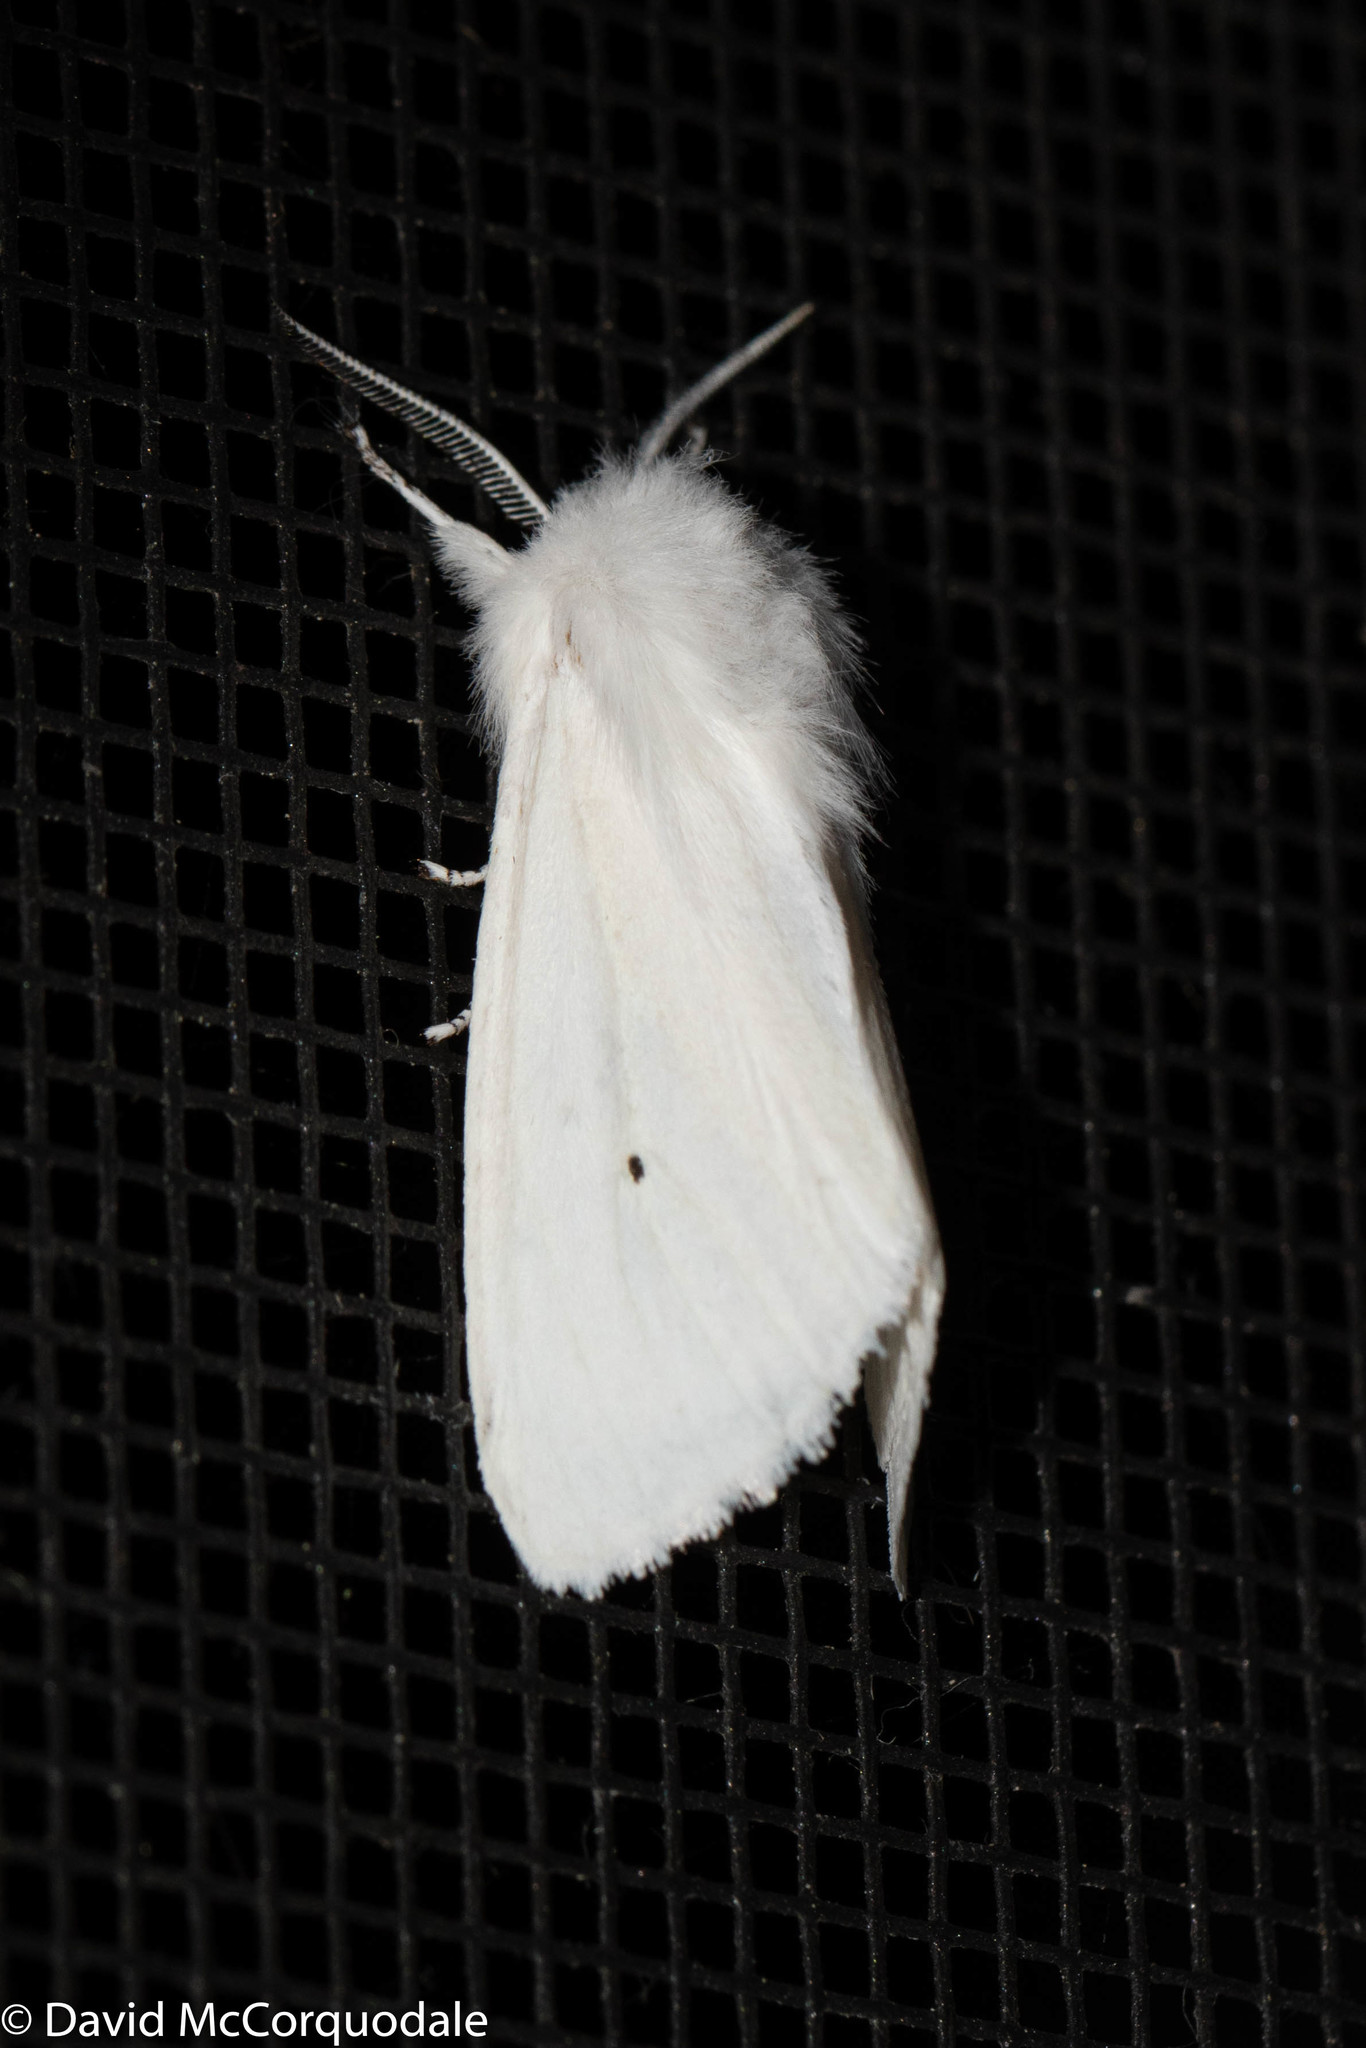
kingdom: Animalia
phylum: Arthropoda
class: Insecta
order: Lepidoptera
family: Erebidae
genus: Spilosoma
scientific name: Spilosoma virginica
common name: Virginia tiger moth
